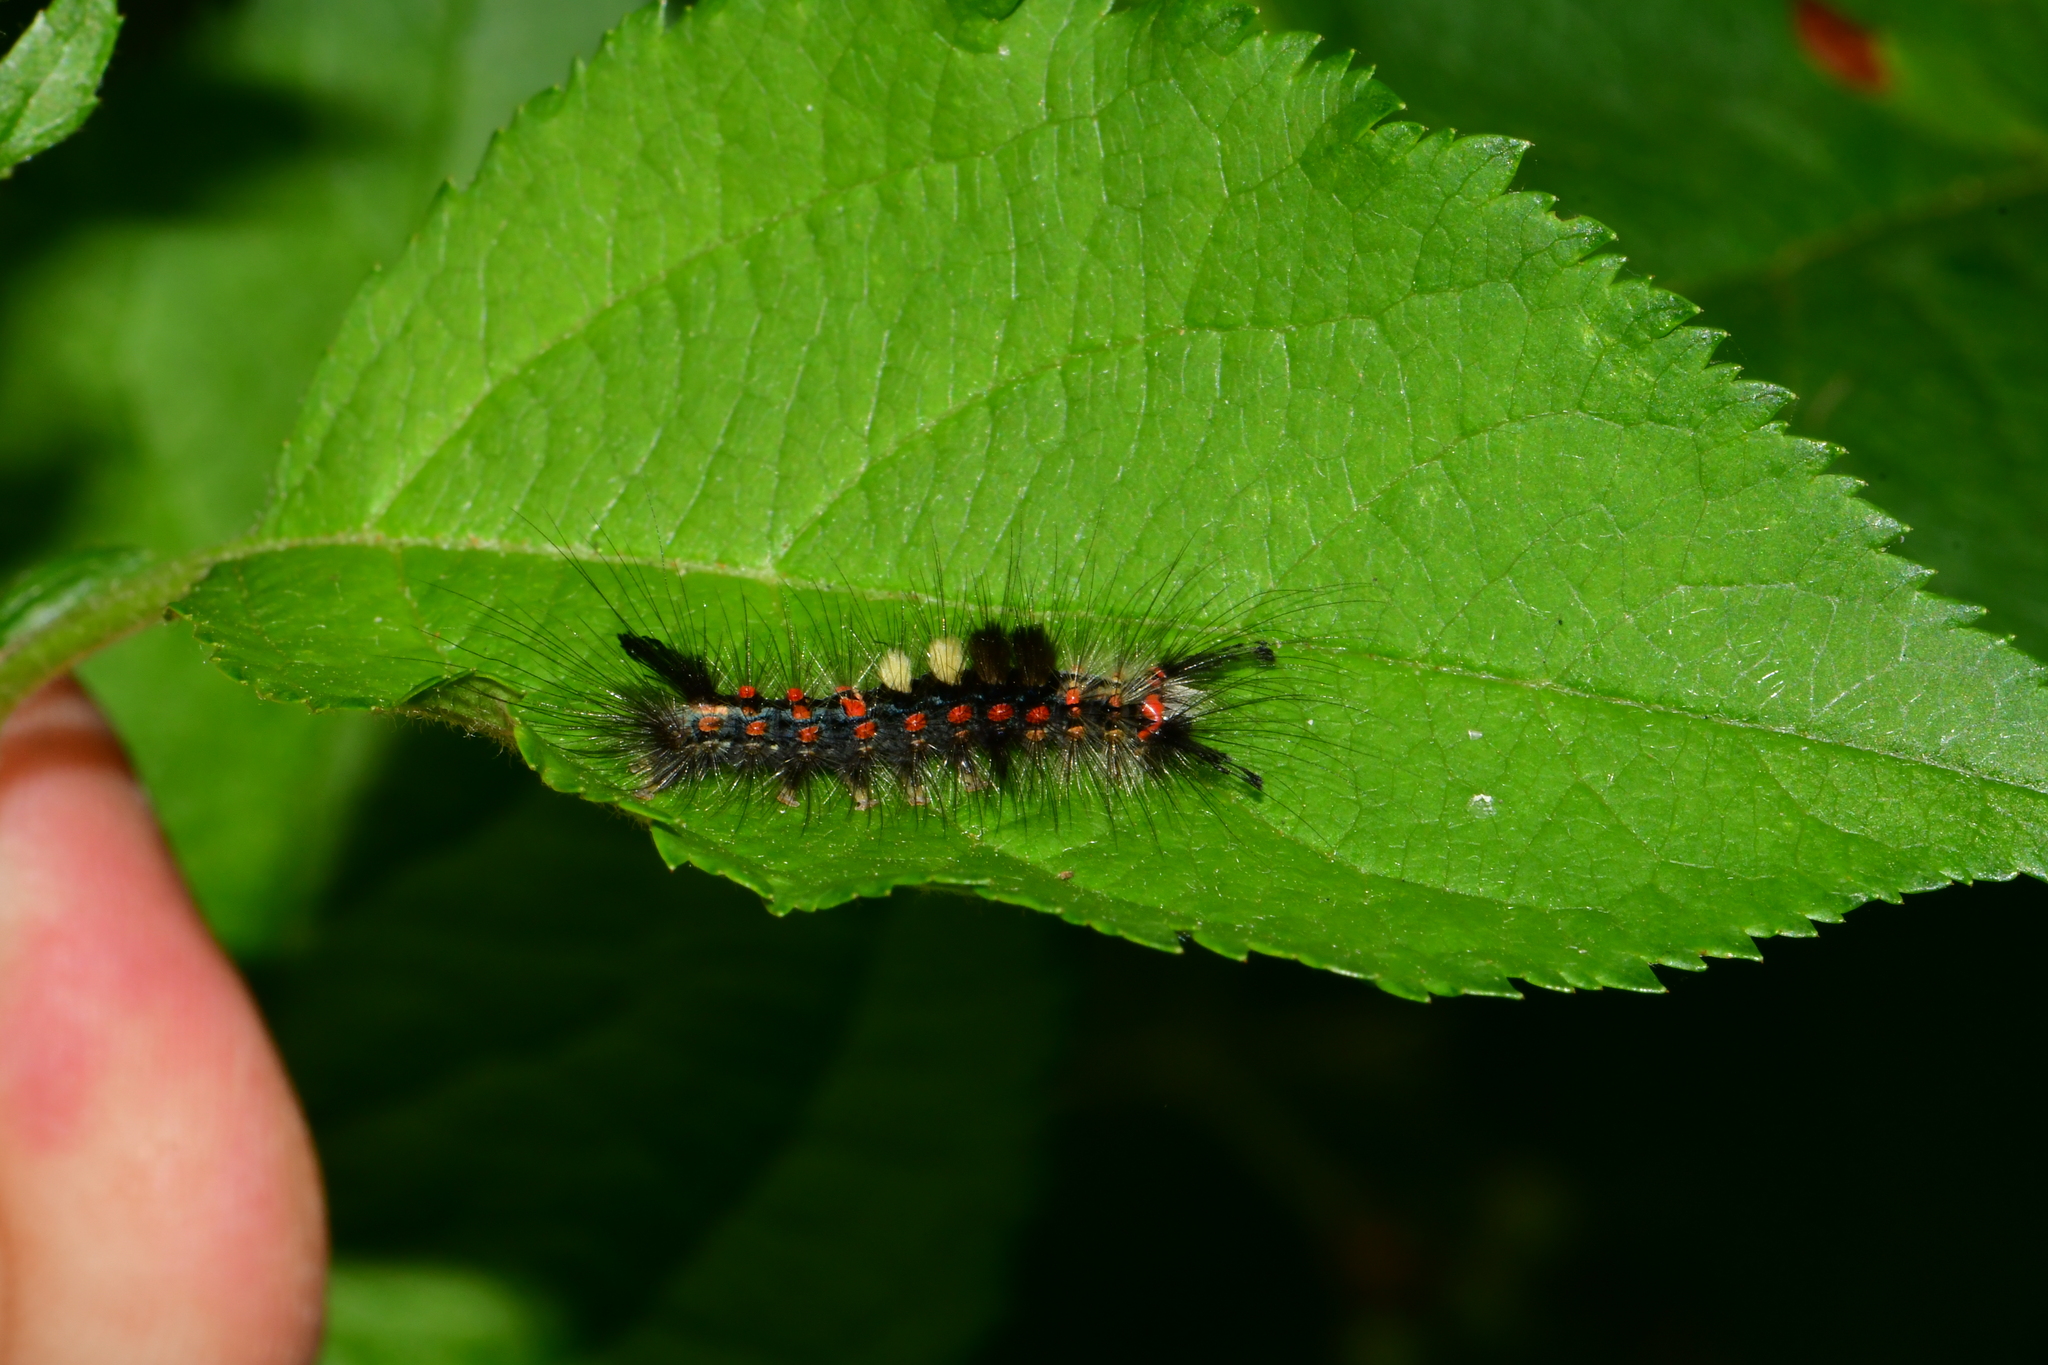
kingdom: Animalia
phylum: Arthropoda
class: Insecta
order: Lepidoptera
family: Erebidae
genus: Orgyia
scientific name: Orgyia antiqua
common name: Vapourer
